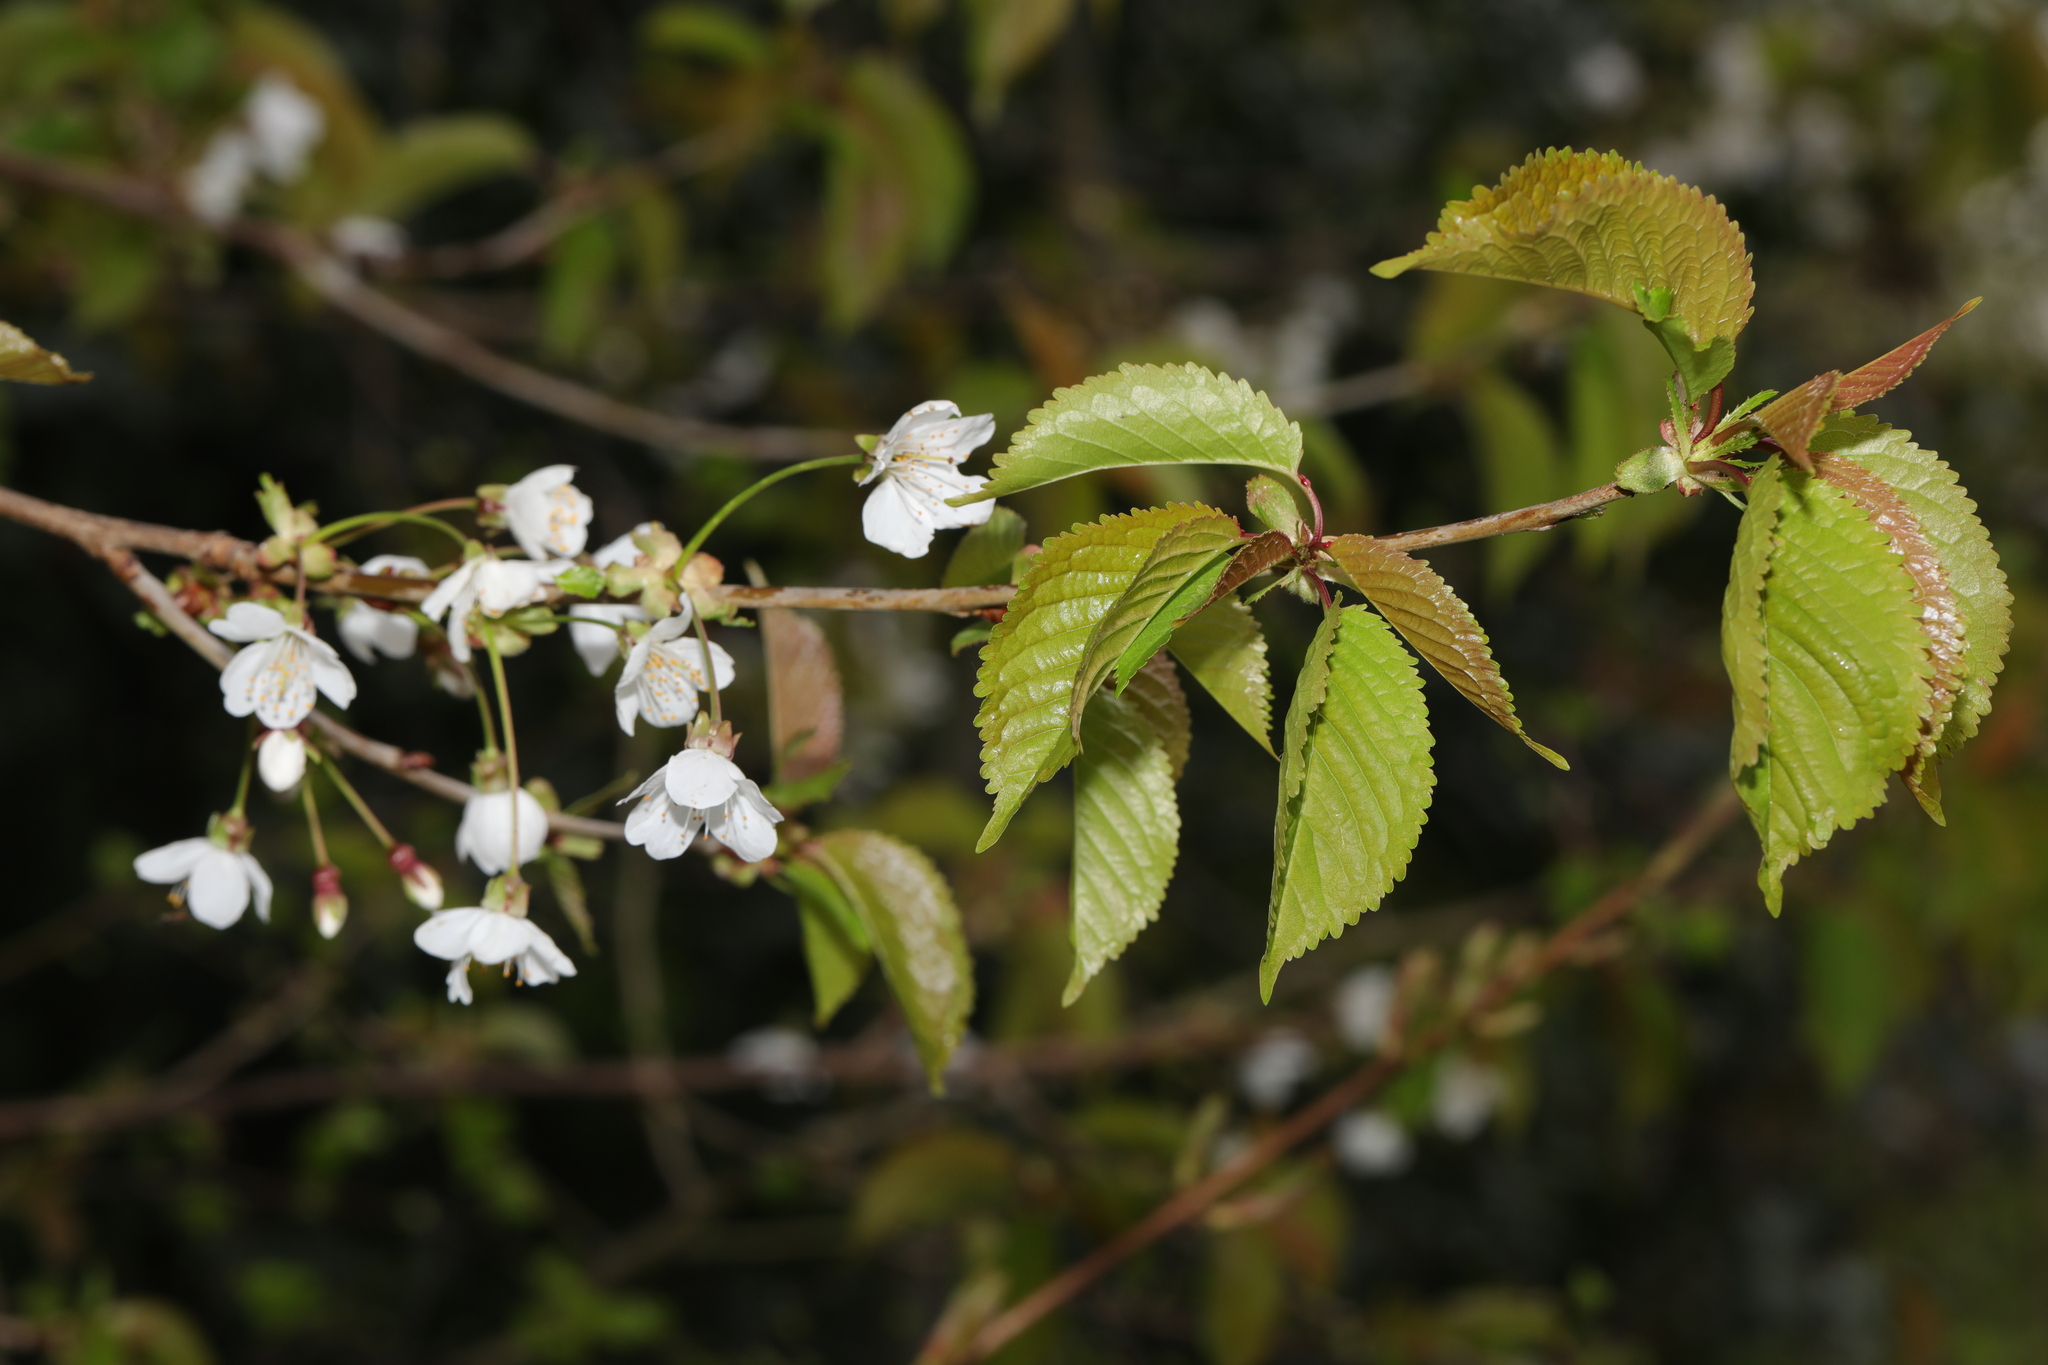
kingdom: Plantae
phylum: Tracheophyta
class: Magnoliopsida
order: Rosales
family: Rosaceae
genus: Prunus
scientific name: Prunus avium
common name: Sweet cherry
